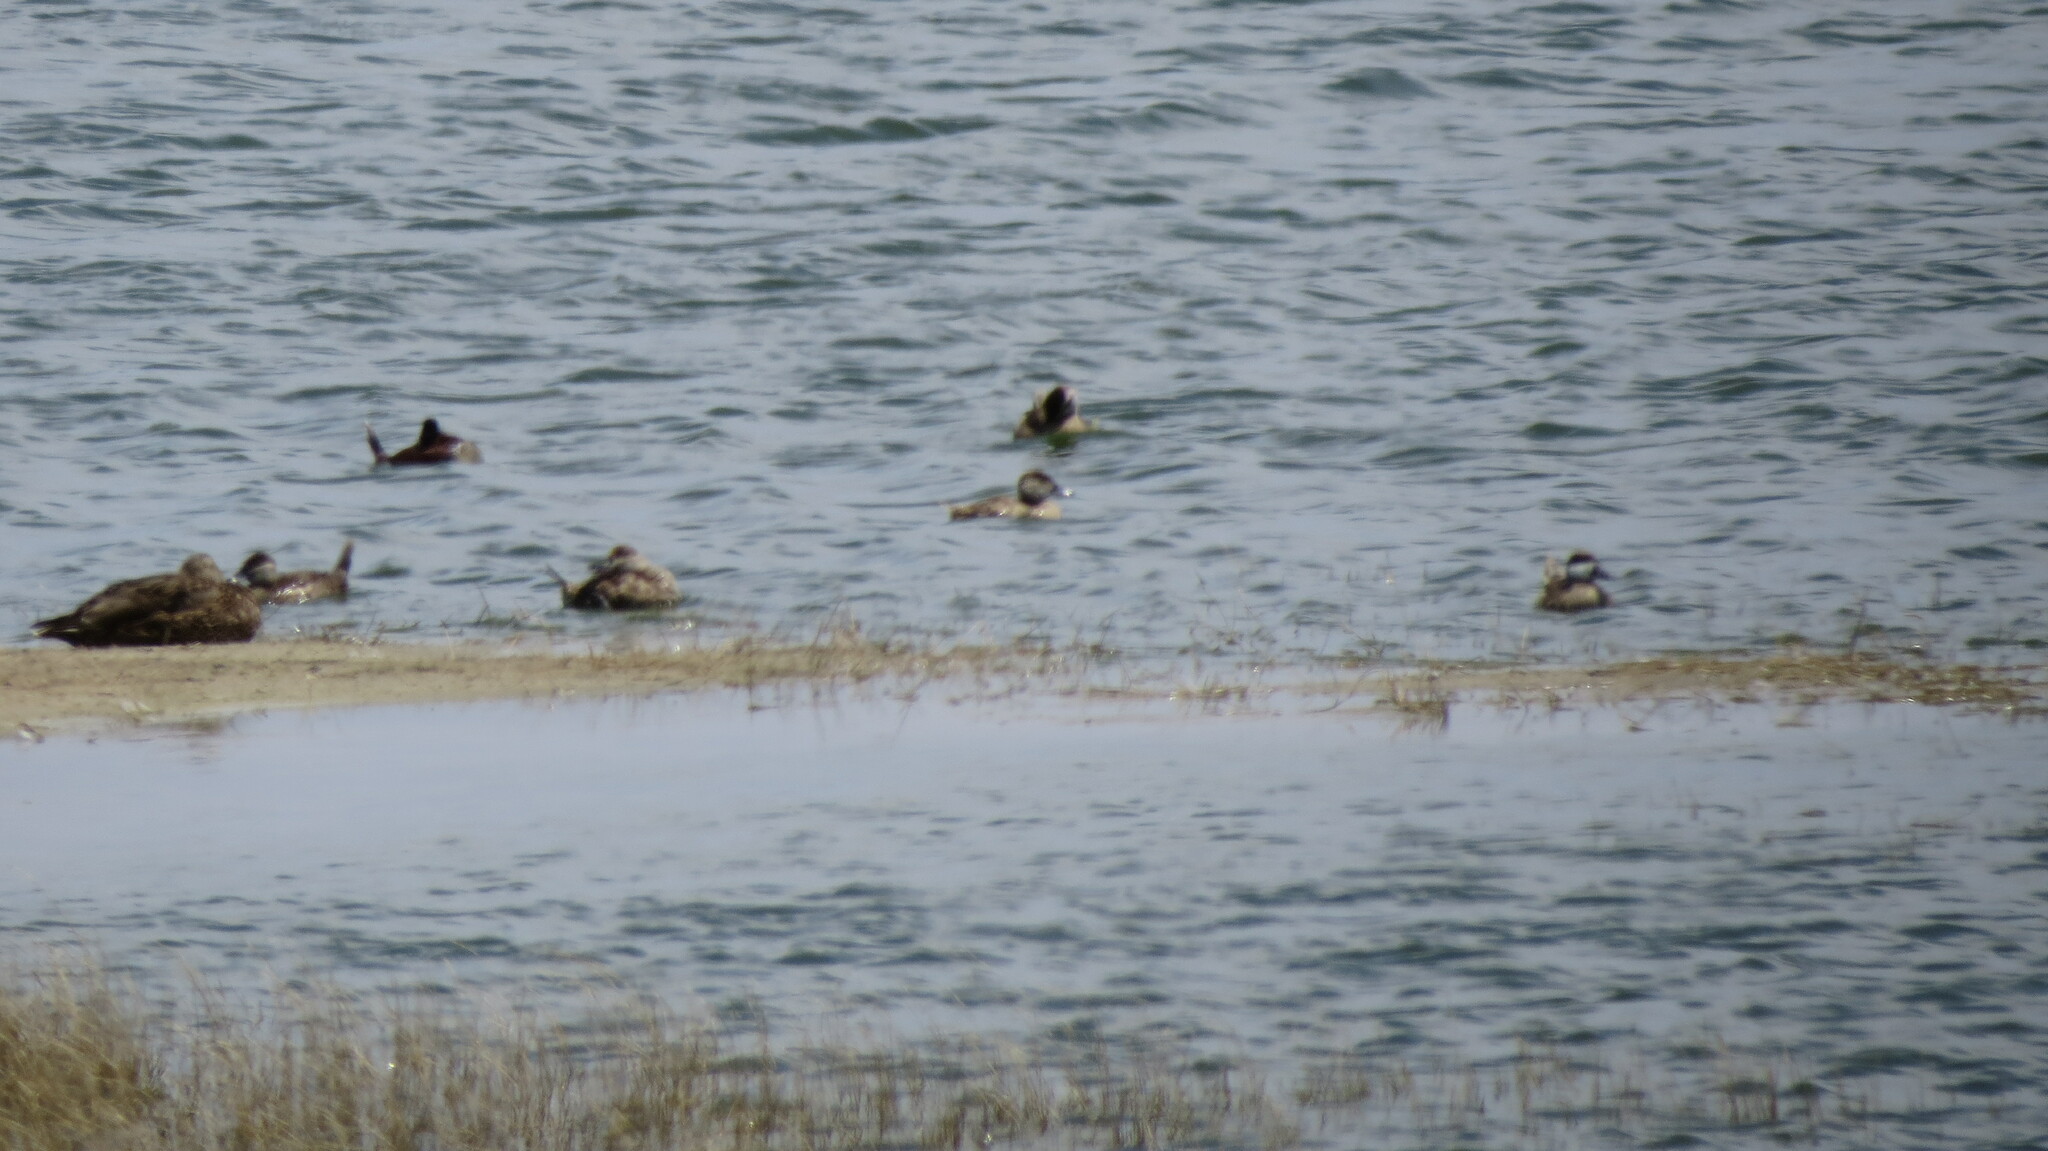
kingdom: Animalia
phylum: Chordata
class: Aves
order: Anseriformes
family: Anatidae
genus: Oxyura
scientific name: Oxyura jamaicensis
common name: Ruddy duck
